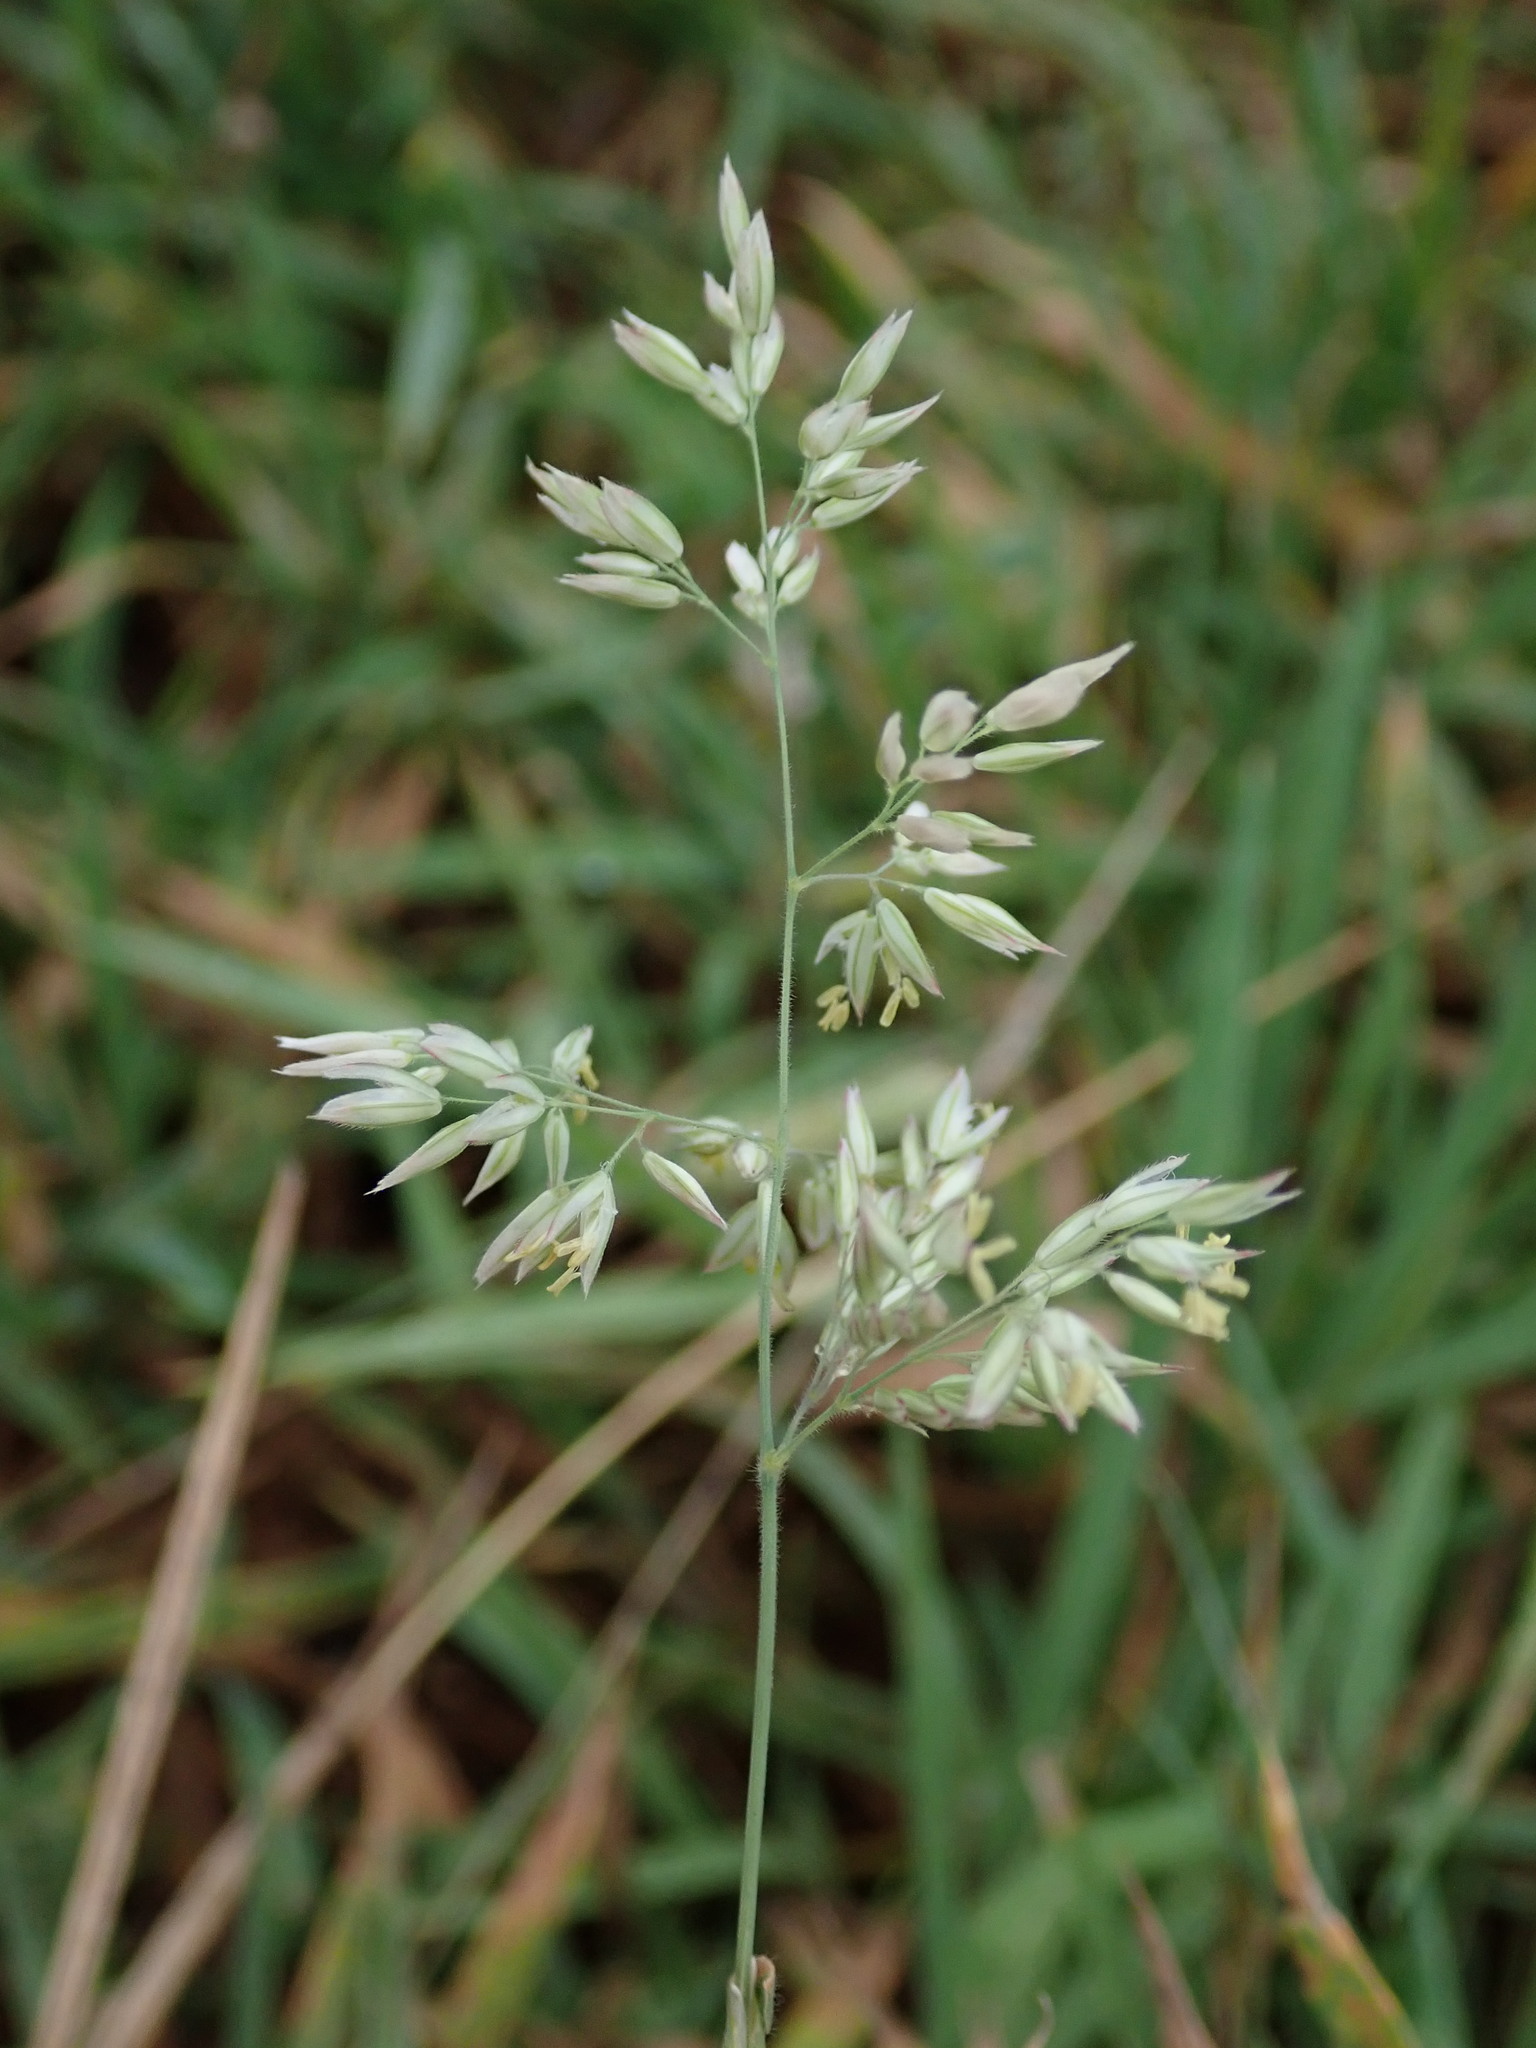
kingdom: Plantae
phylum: Tracheophyta
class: Liliopsida
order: Poales
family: Poaceae
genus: Holcus
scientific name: Holcus lanatus
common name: Yorkshire-fog
